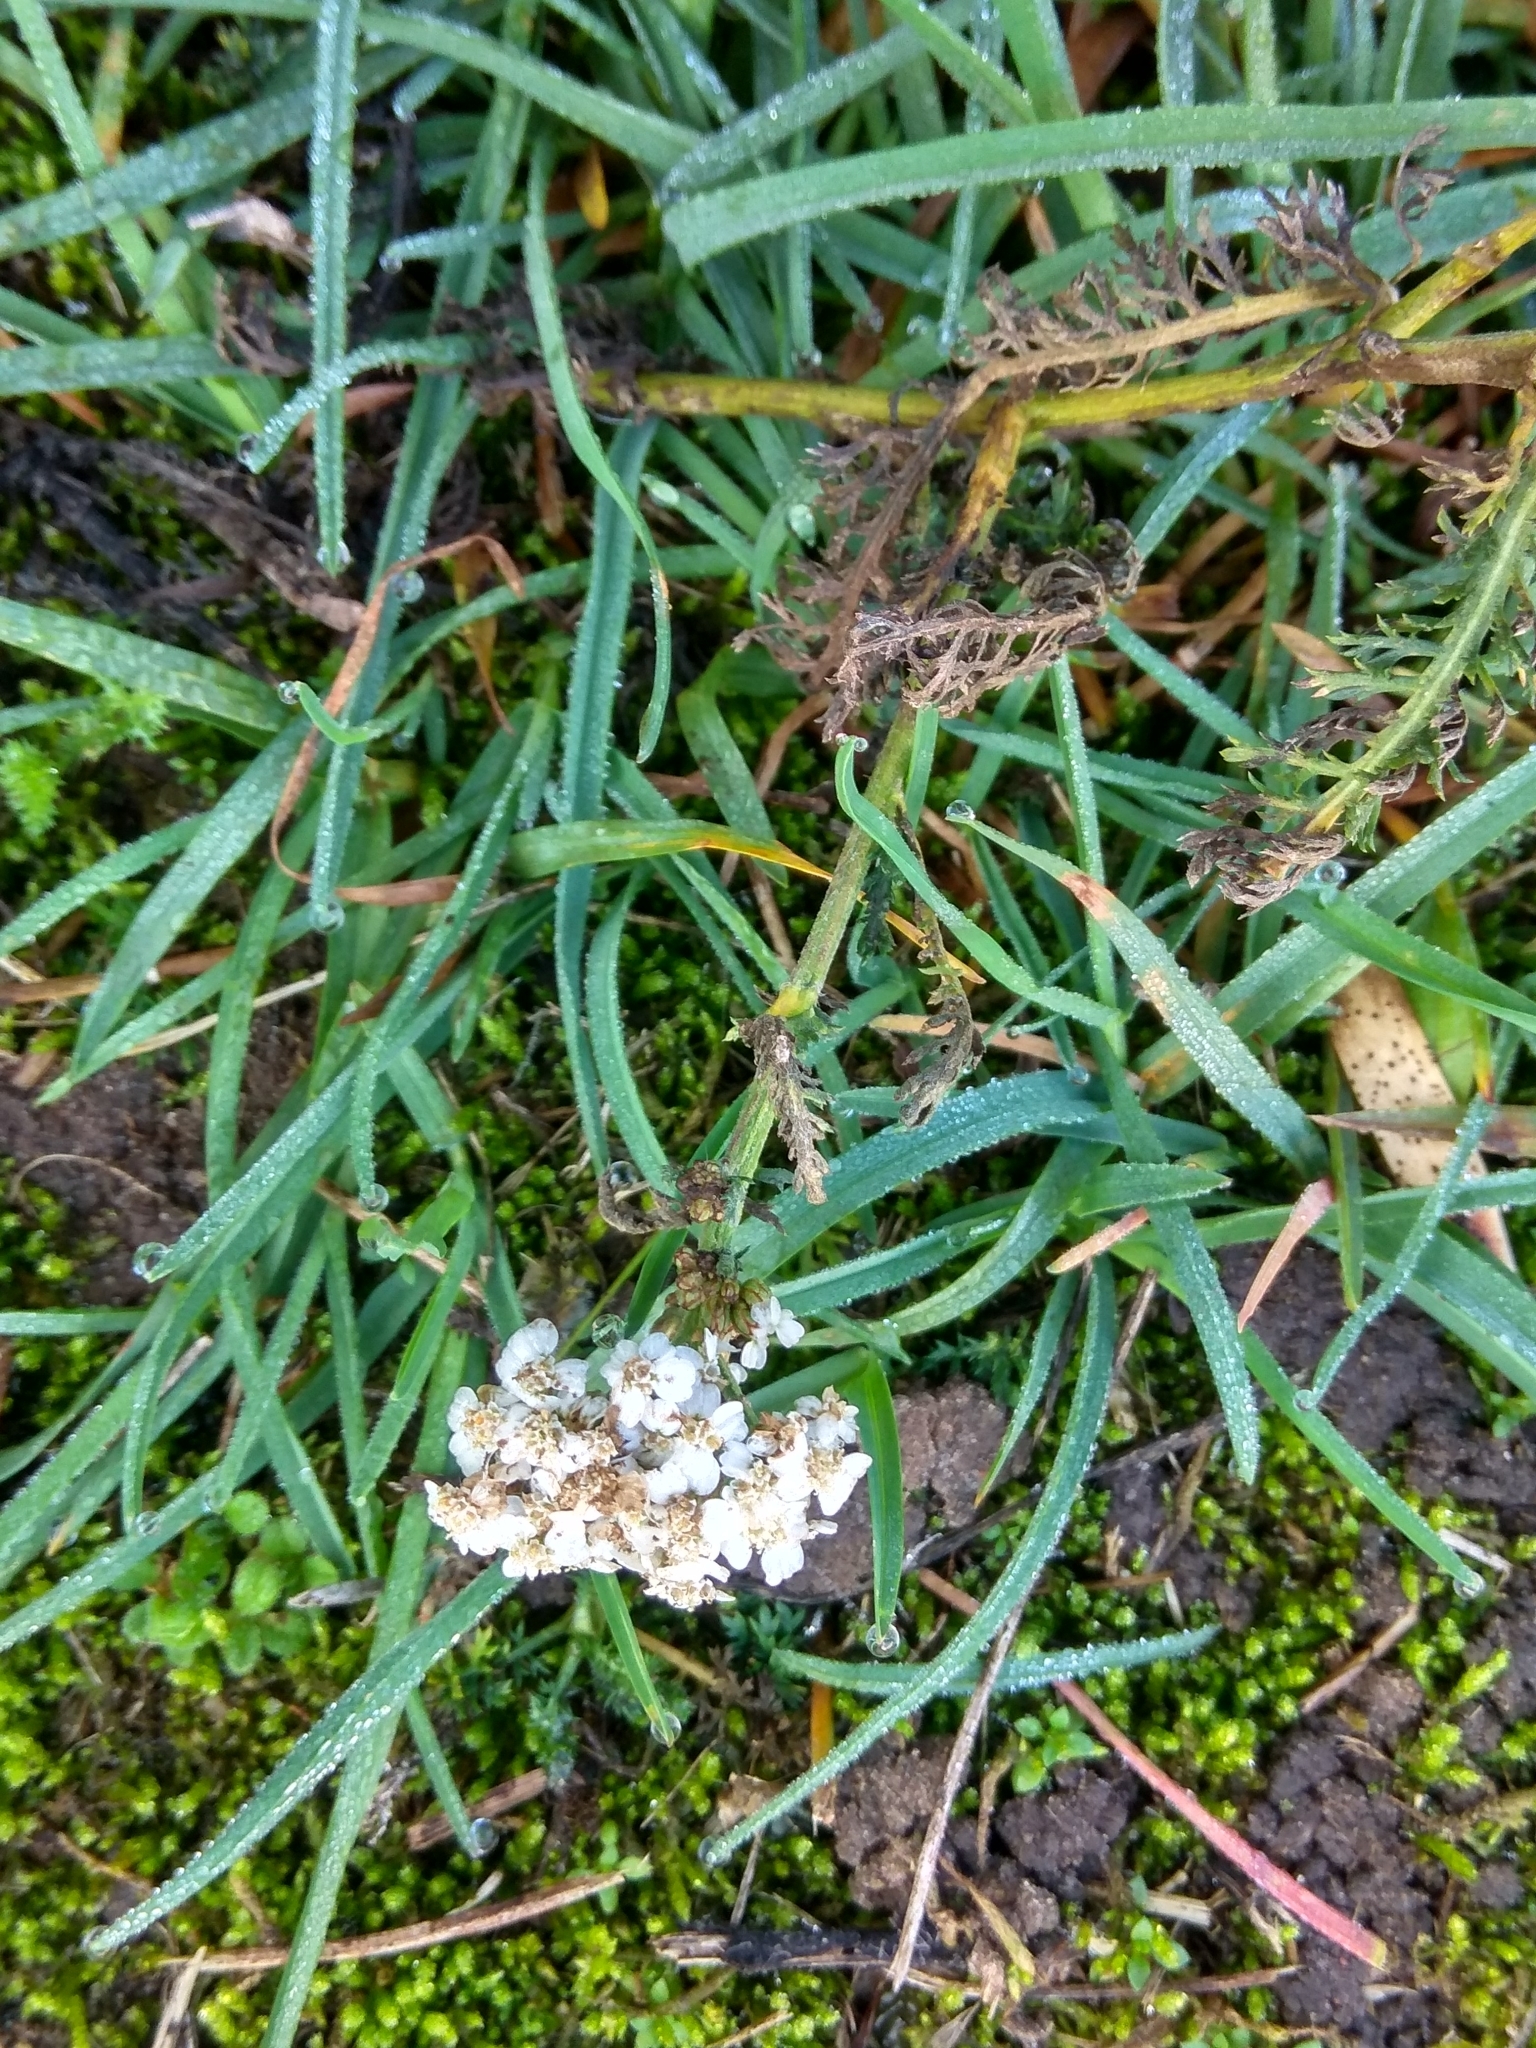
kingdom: Plantae
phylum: Tracheophyta
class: Magnoliopsida
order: Asterales
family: Asteraceae
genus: Achillea
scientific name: Achillea millefolium
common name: Yarrow
